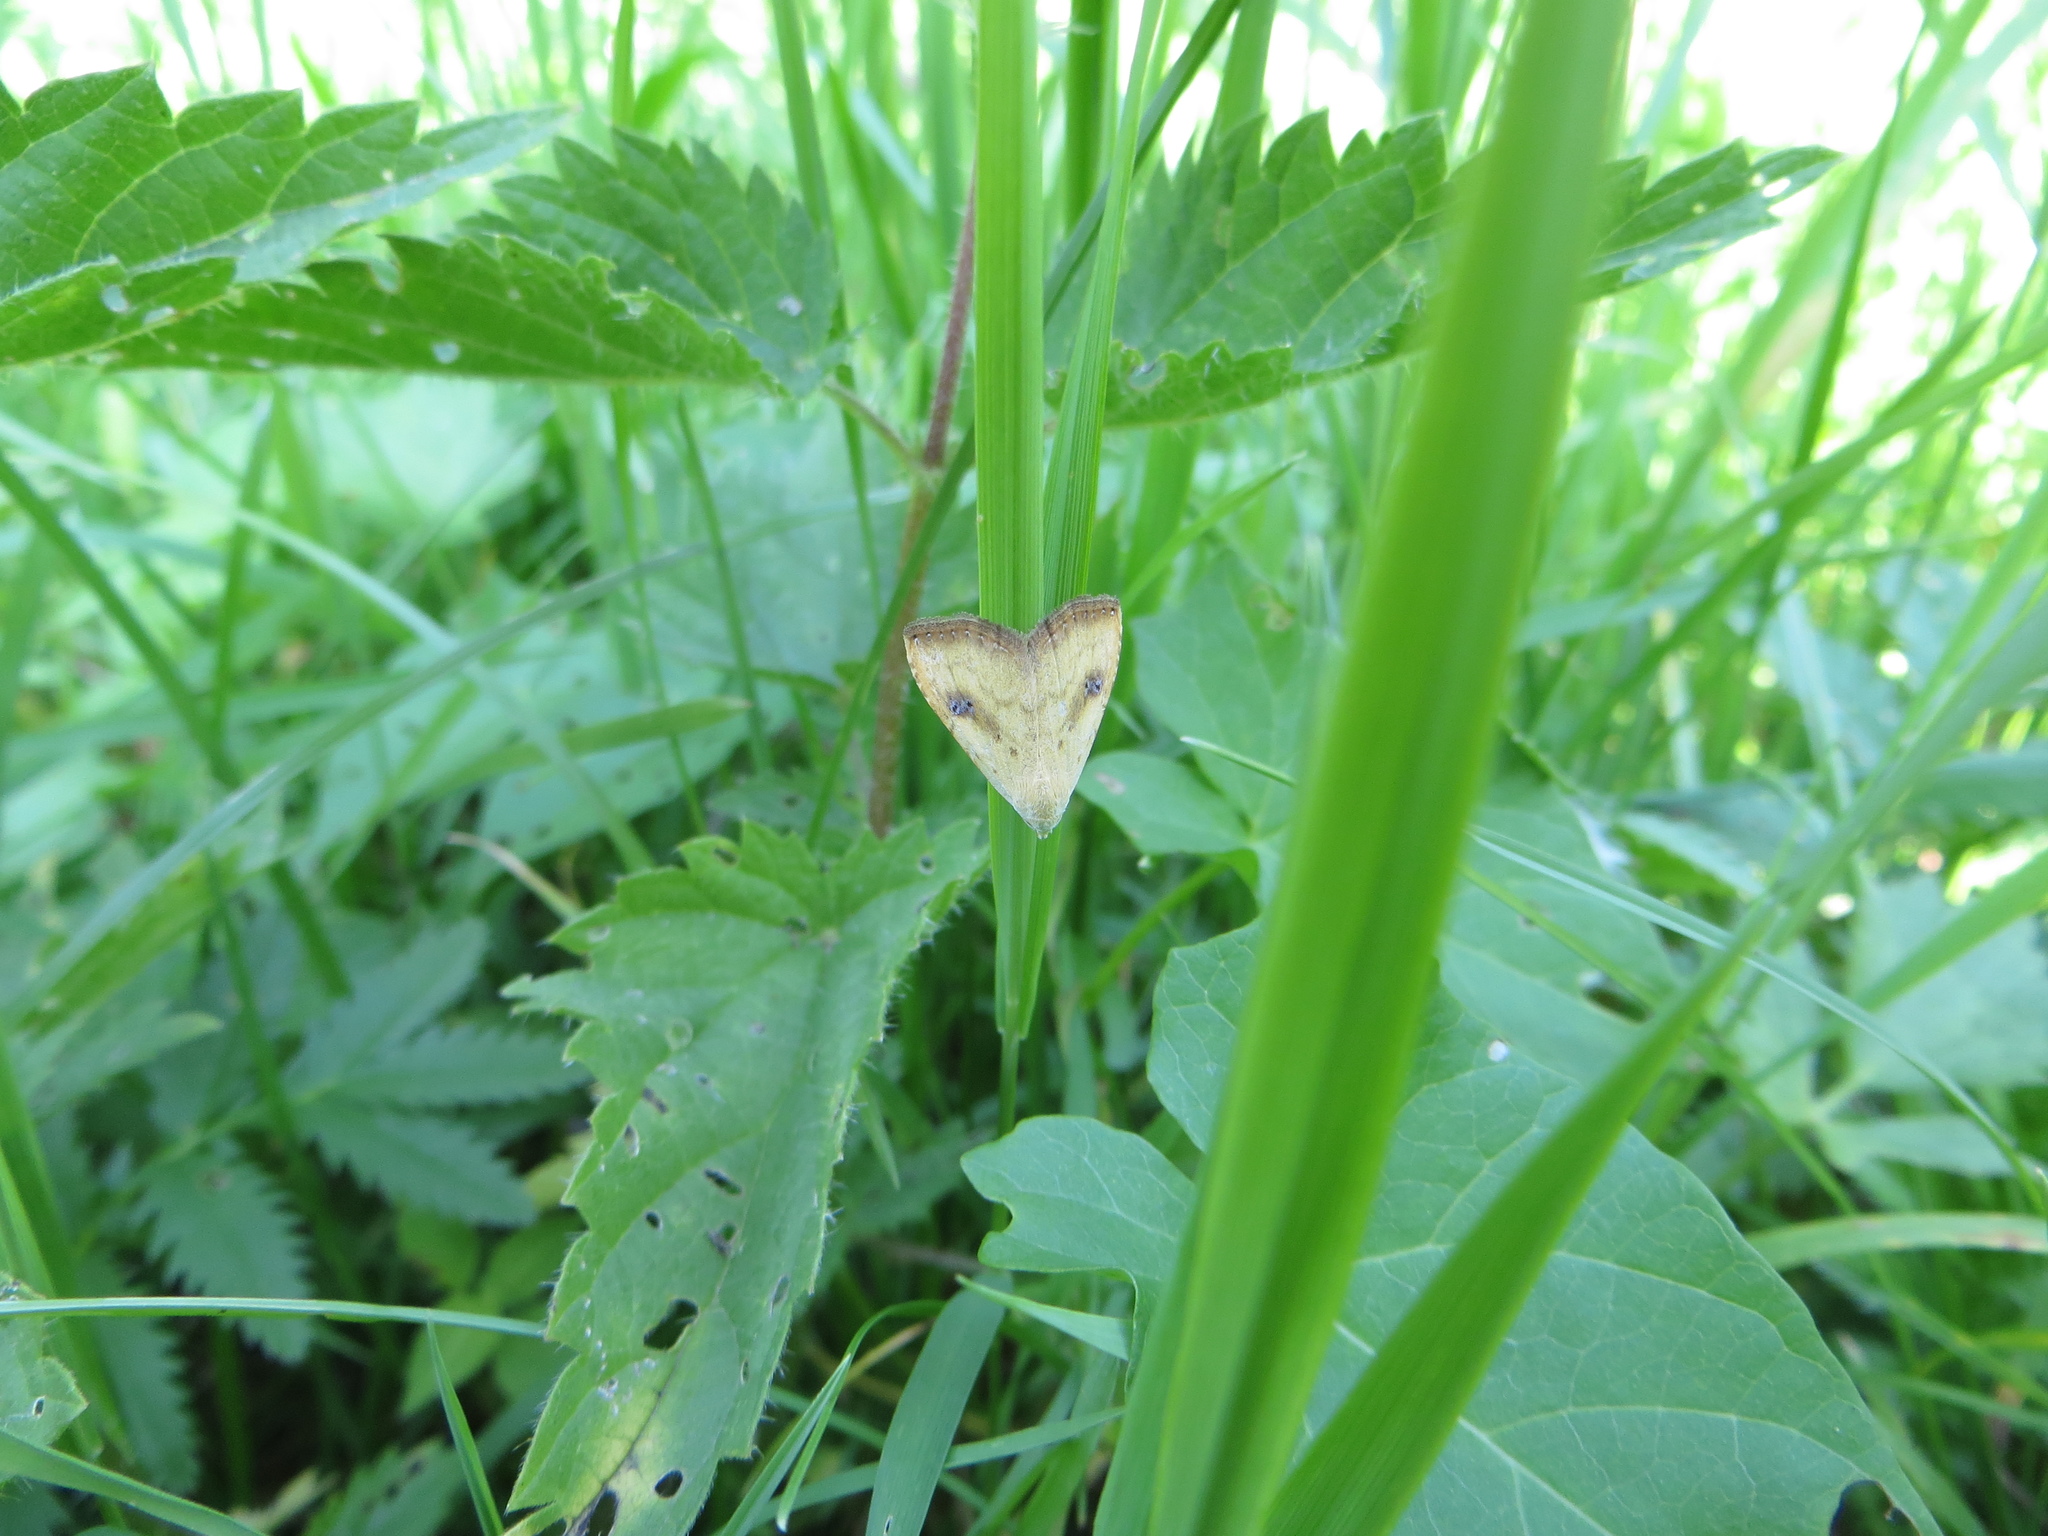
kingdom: Animalia
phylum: Arthropoda
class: Insecta
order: Lepidoptera
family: Erebidae
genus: Rivula
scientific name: Rivula sericealis
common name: Straw dot
